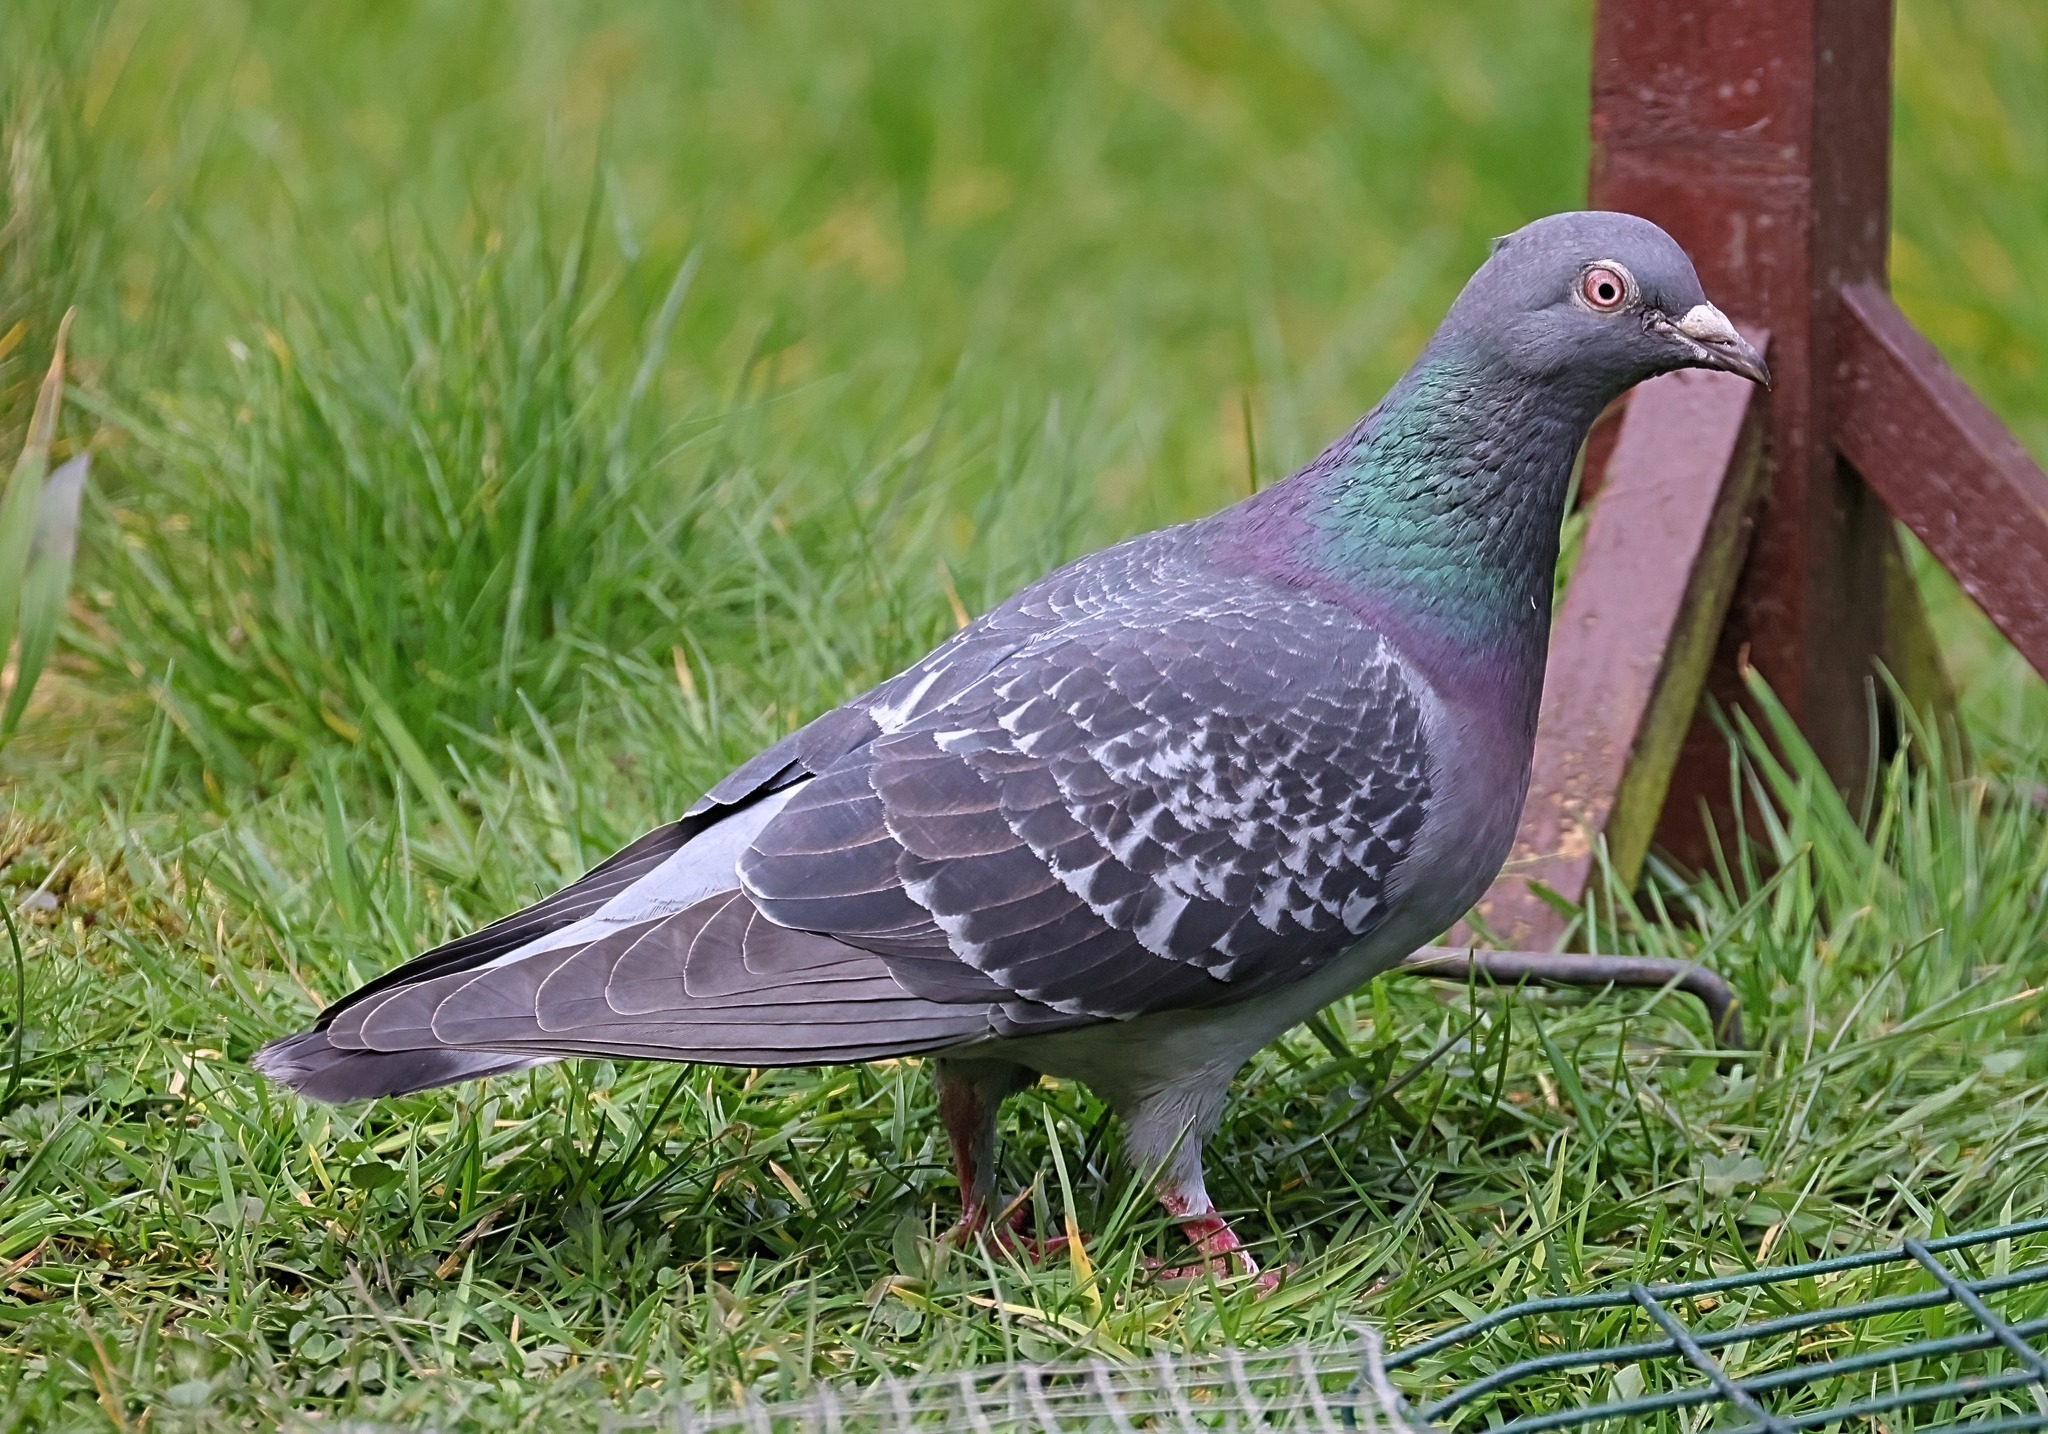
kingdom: Animalia
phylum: Chordata
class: Aves
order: Columbiformes
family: Columbidae
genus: Columba
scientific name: Columba livia
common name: Rock pigeon
